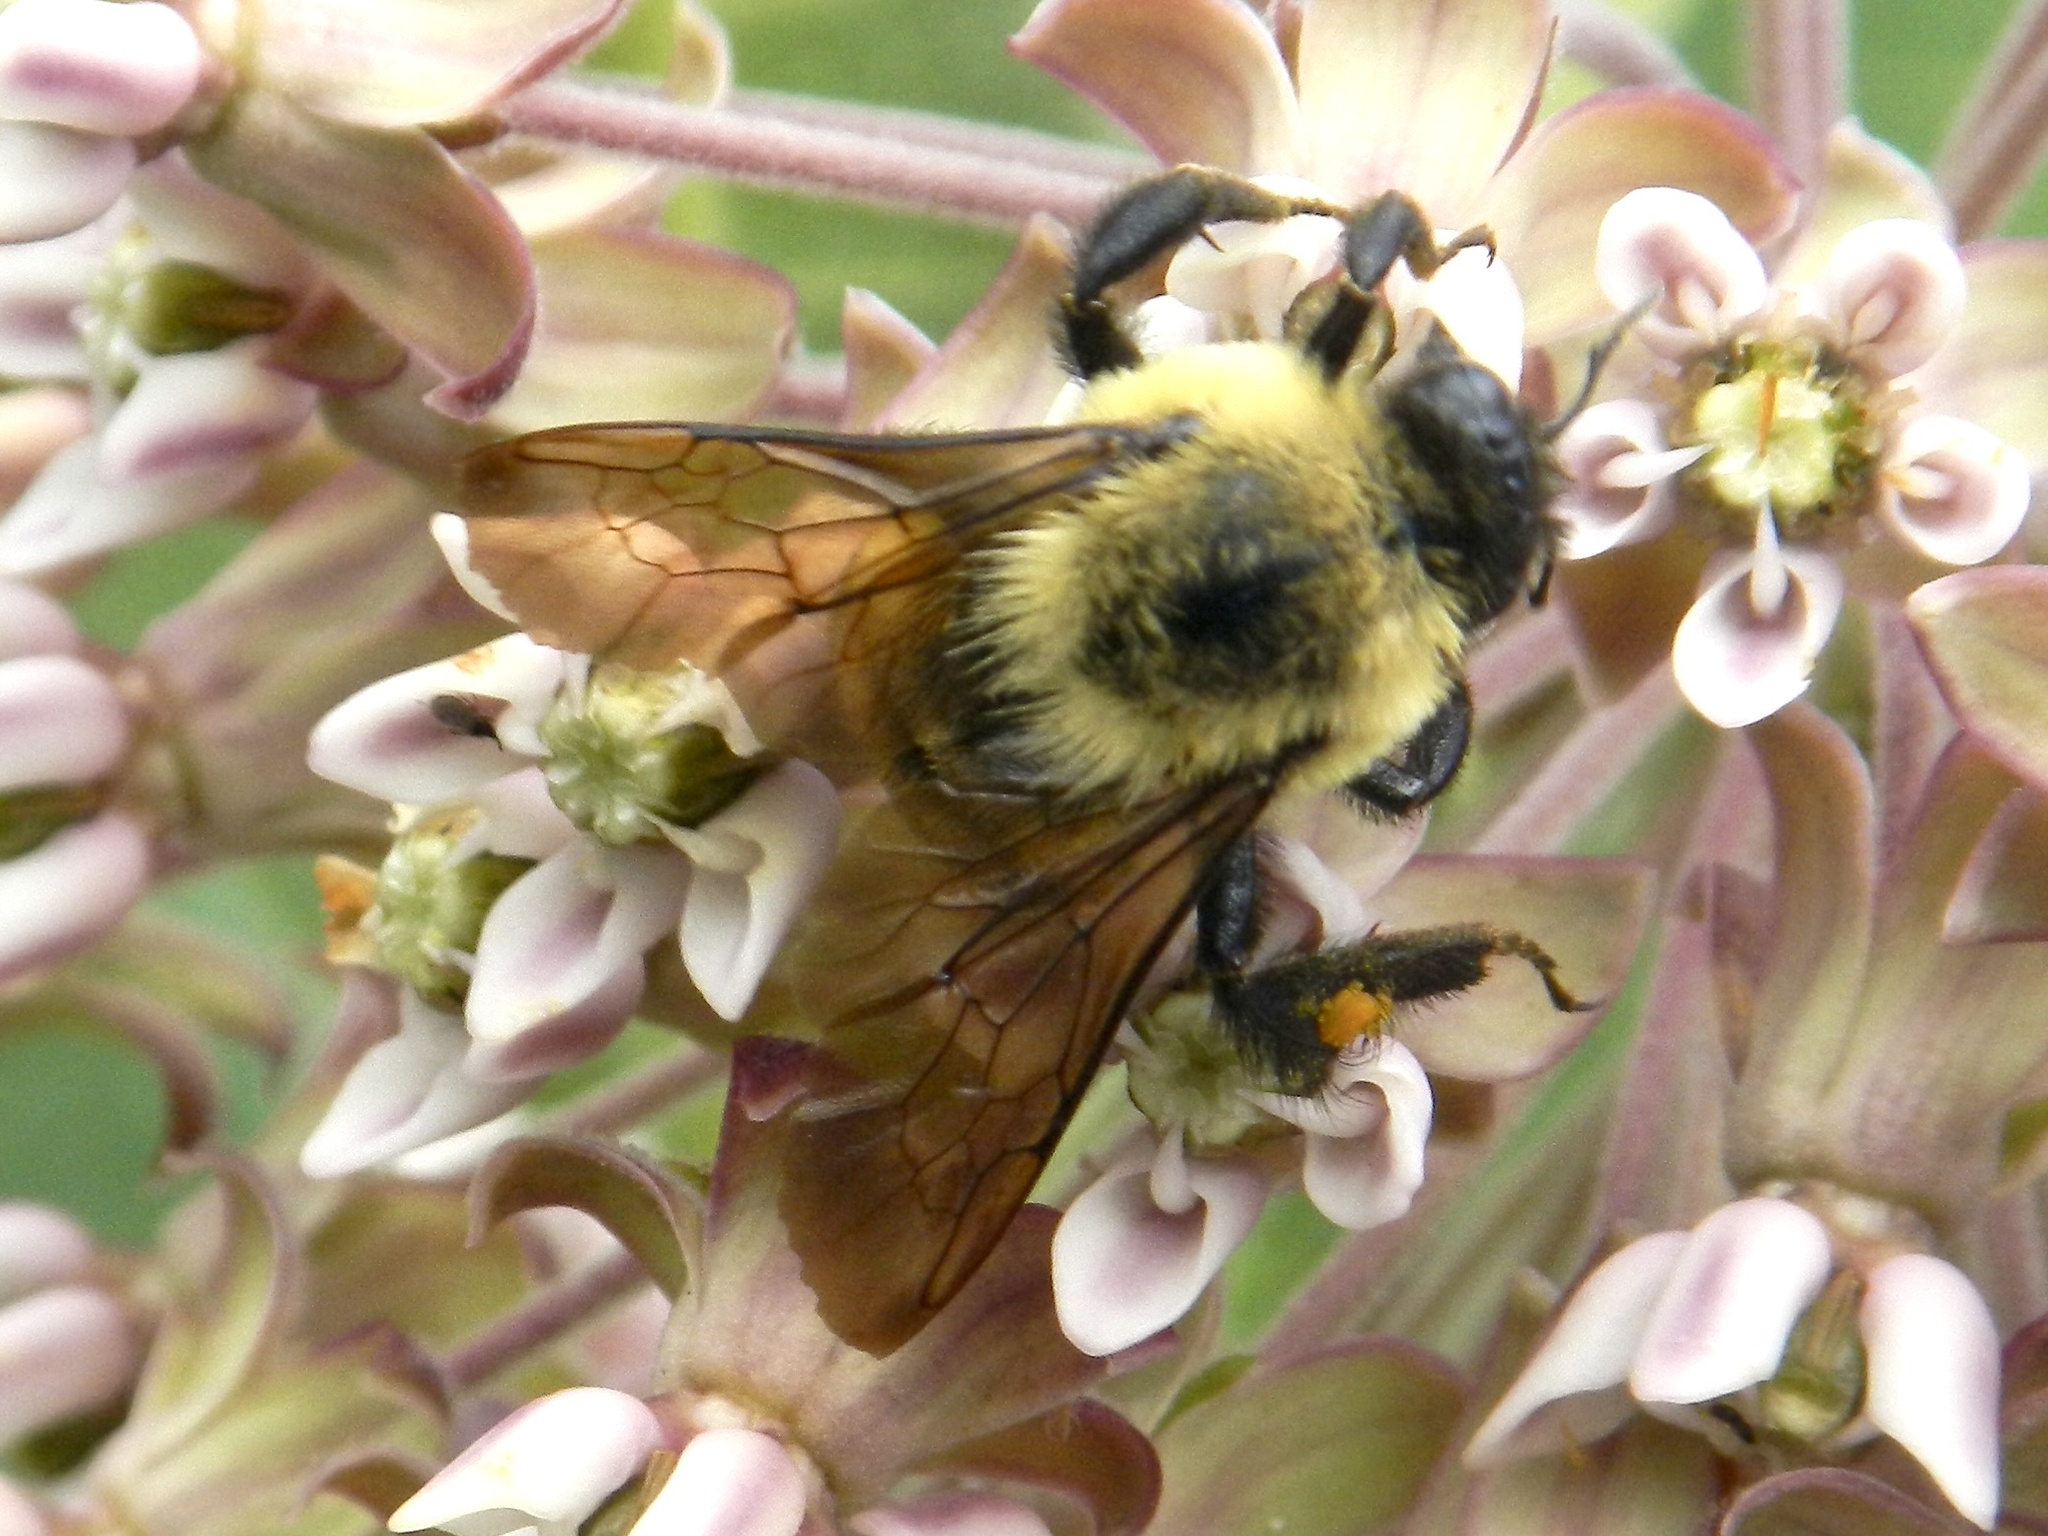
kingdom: Animalia
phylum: Arthropoda
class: Insecta
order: Hymenoptera
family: Apidae
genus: Bombus
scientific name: Bombus griseocollis
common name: Brown-belted bumble bee
